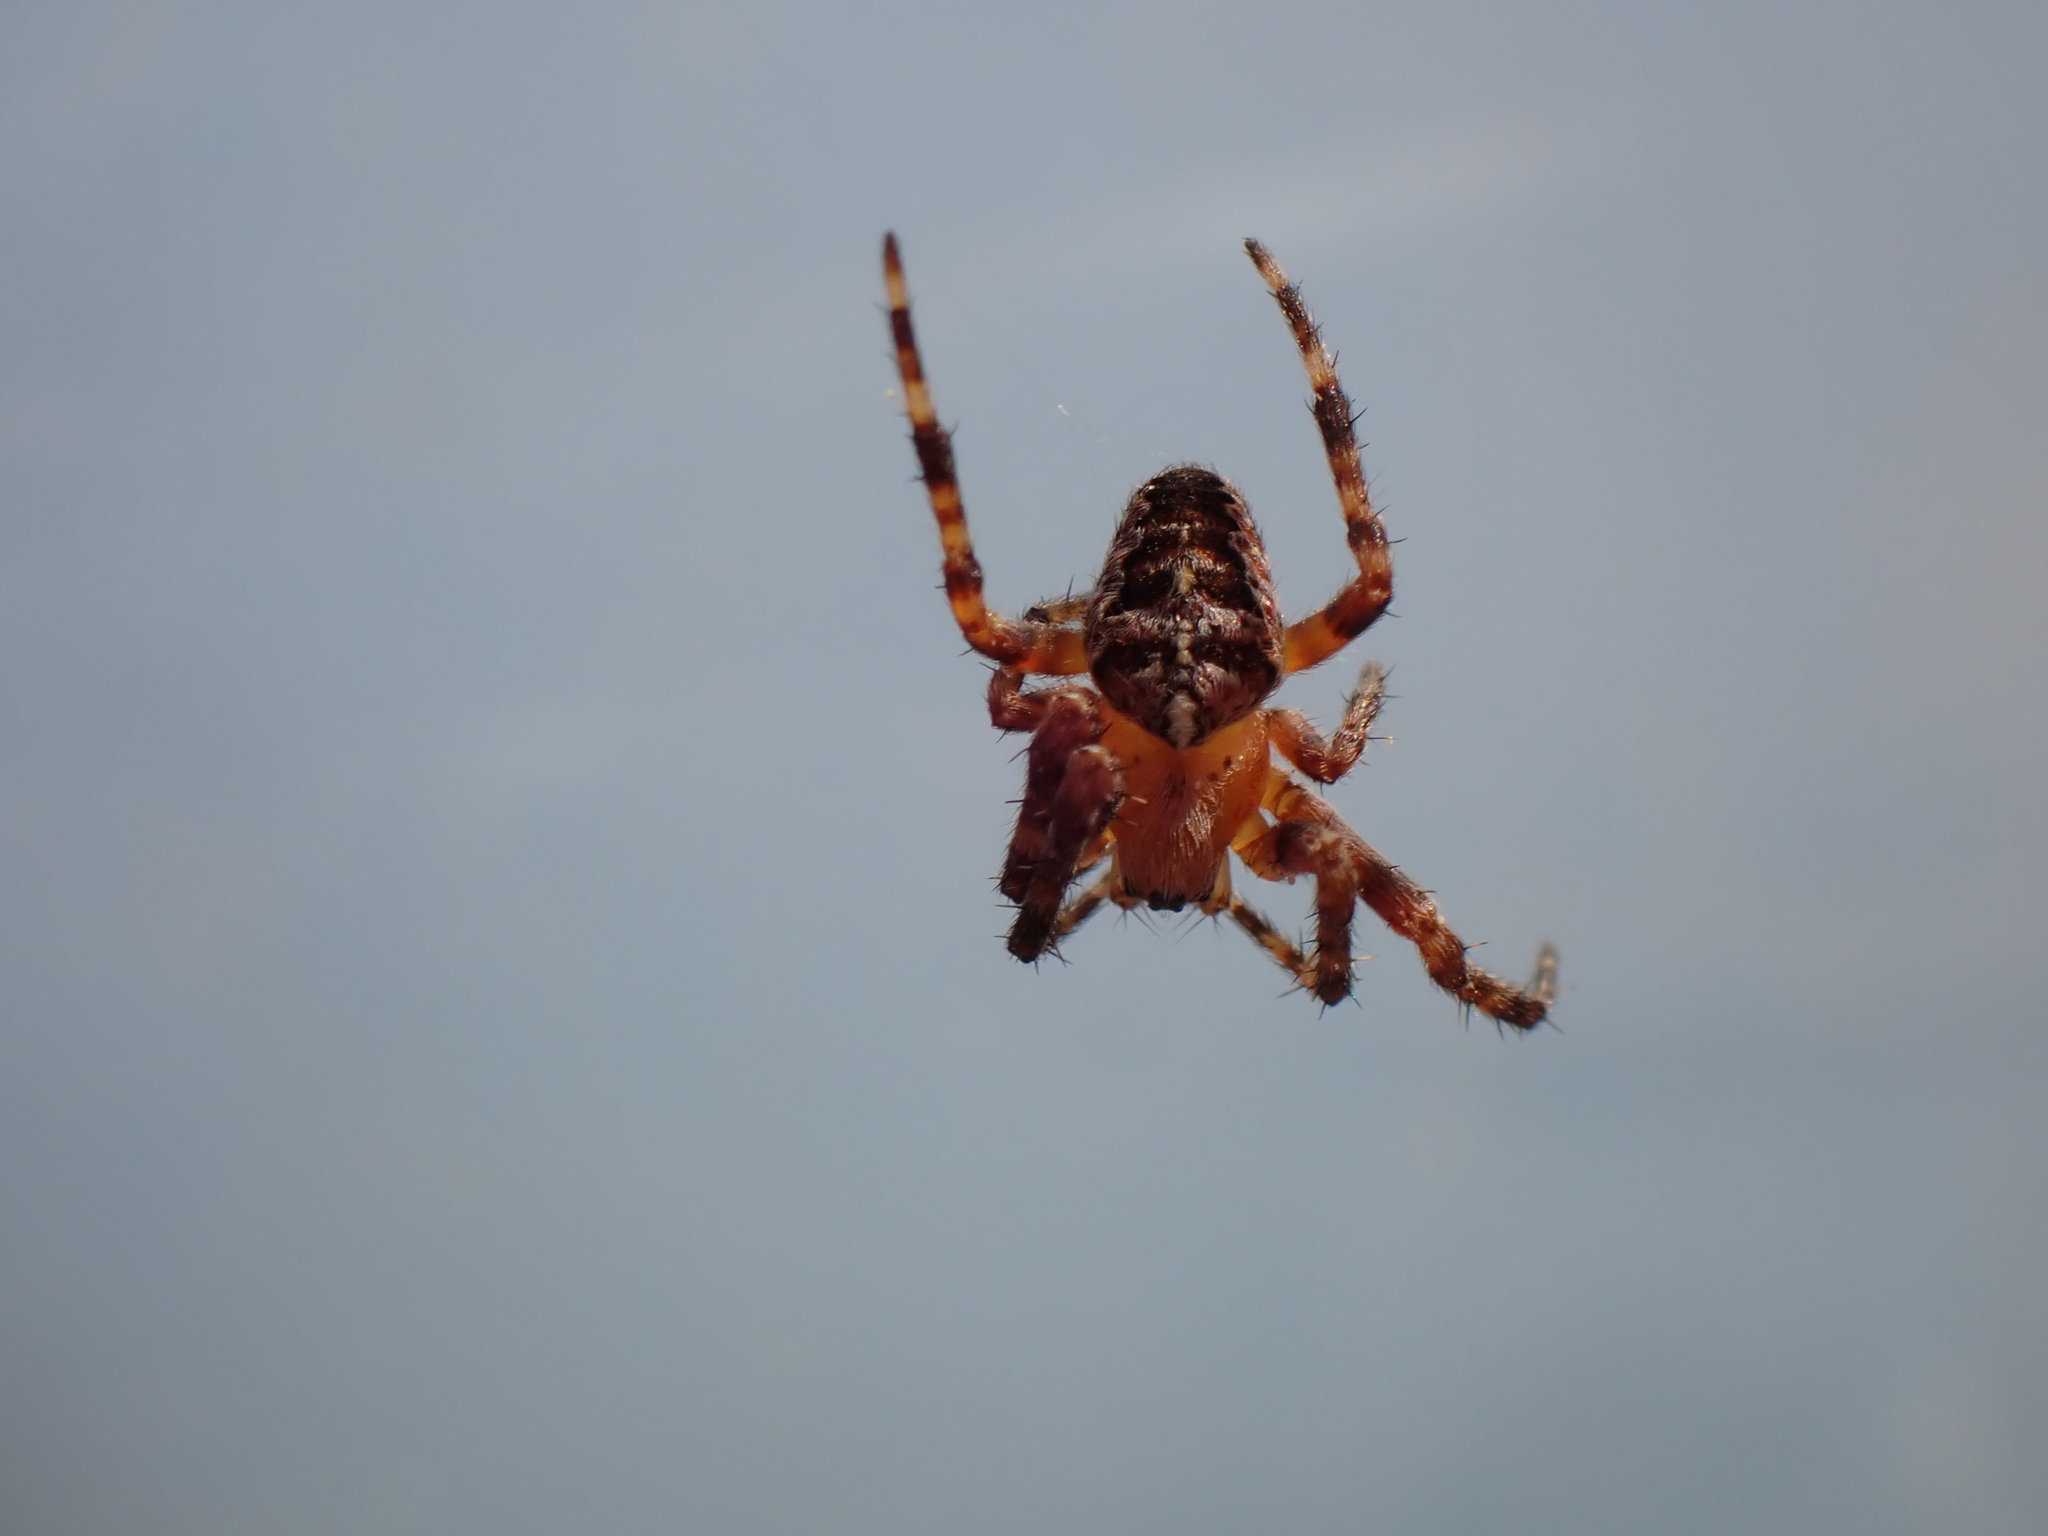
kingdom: Animalia
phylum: Arthropoda
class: Arachnida
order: Araneae
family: Araneidae
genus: Araneus
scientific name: Araneus diadematus
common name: Cross orbweaver
